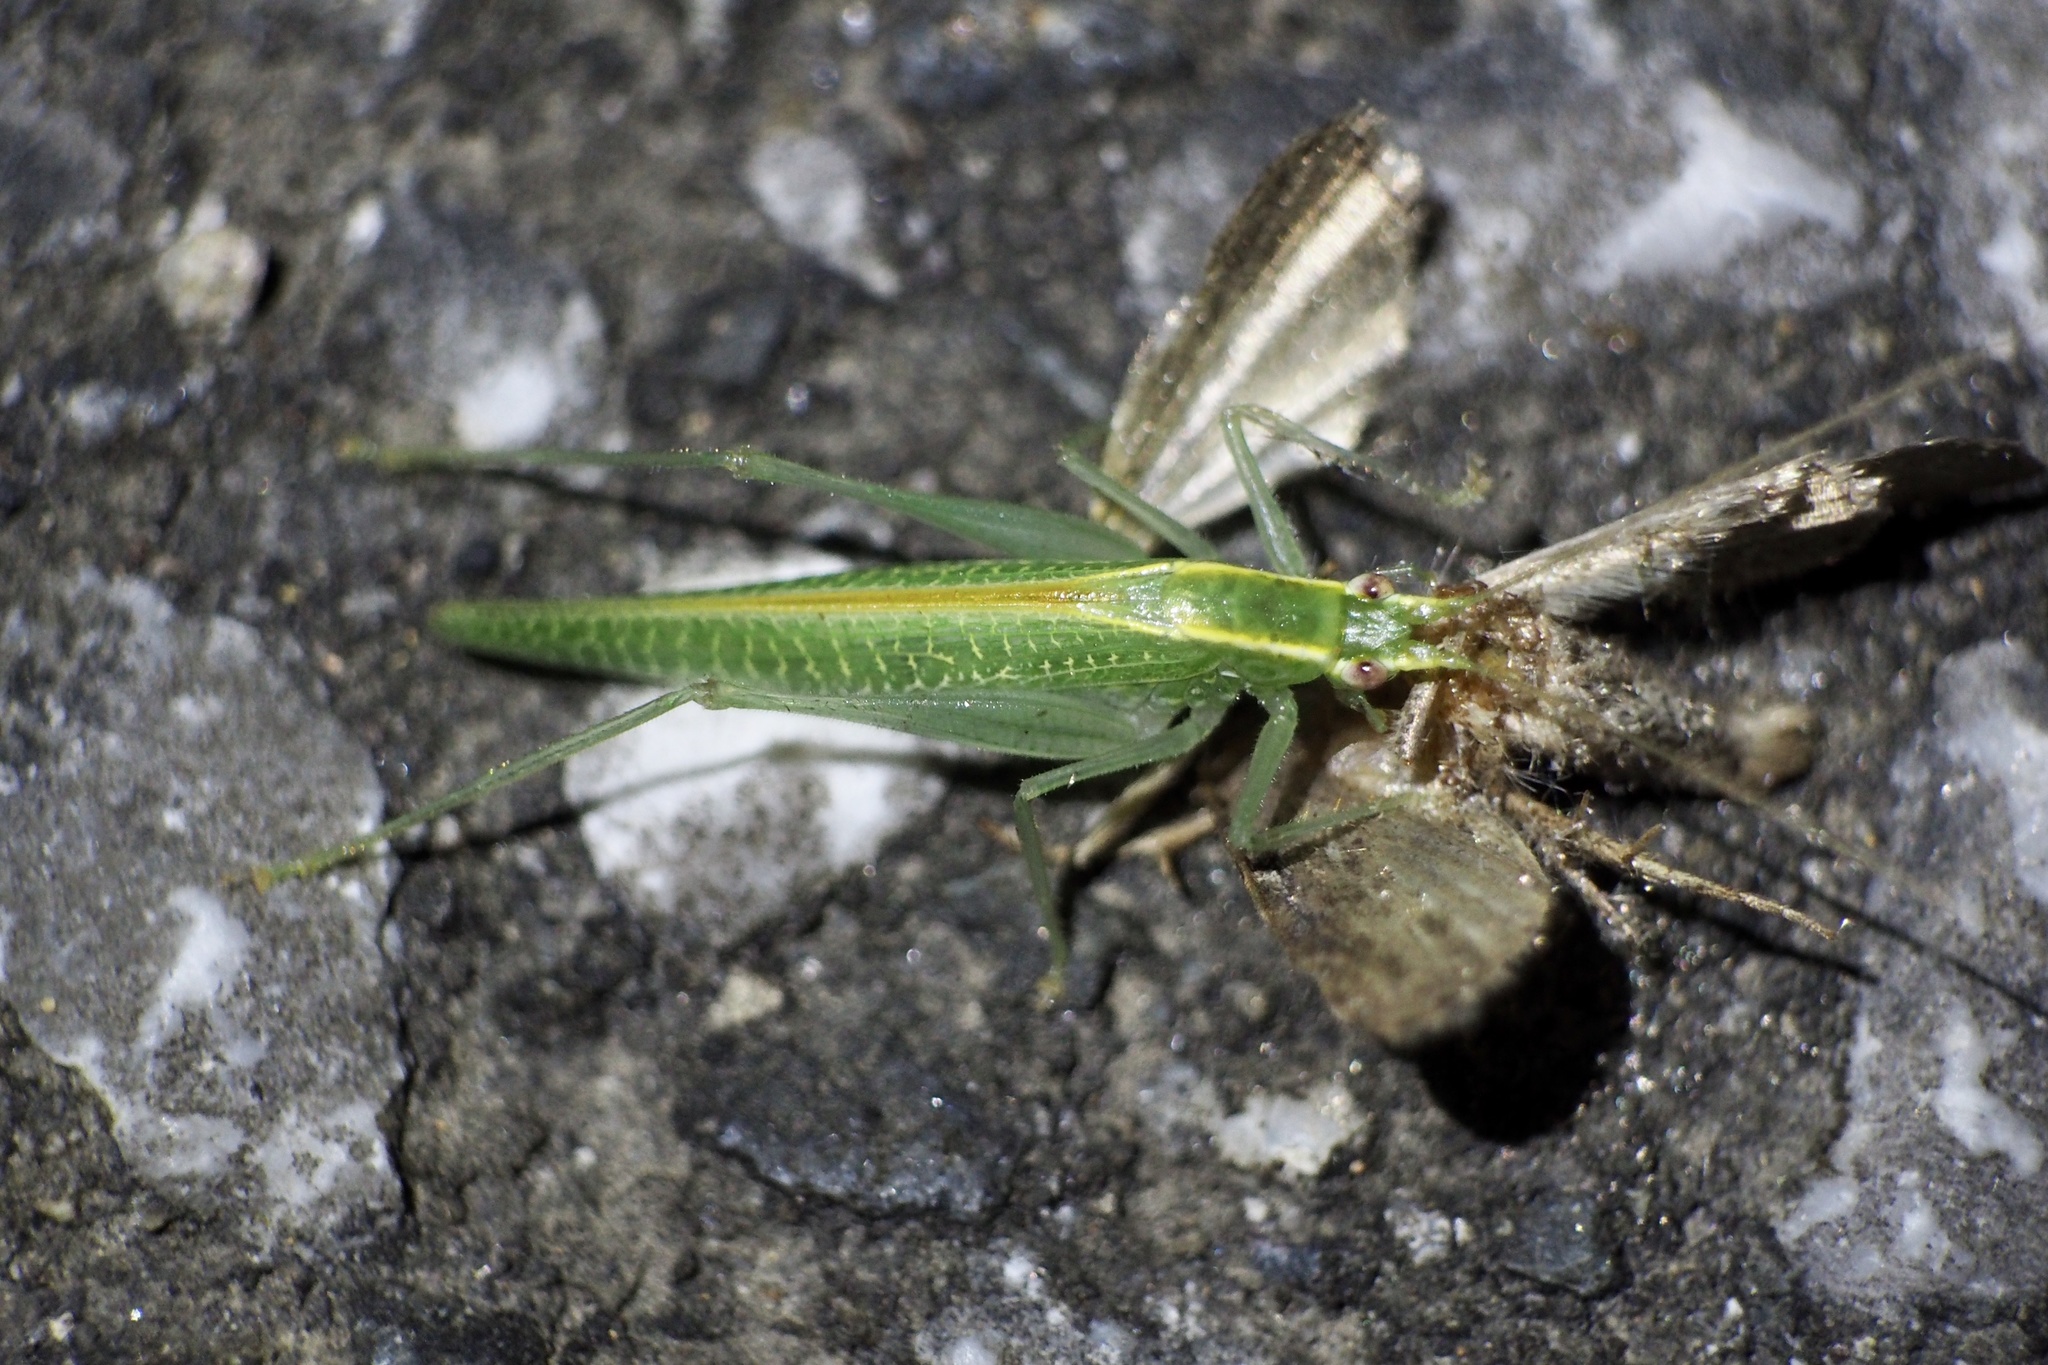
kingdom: Animalia
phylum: Arthropoda
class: Insecta
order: Orthoptera
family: Tettigoniidae
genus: Leptoteratura
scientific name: Leptoteratura albicorne
